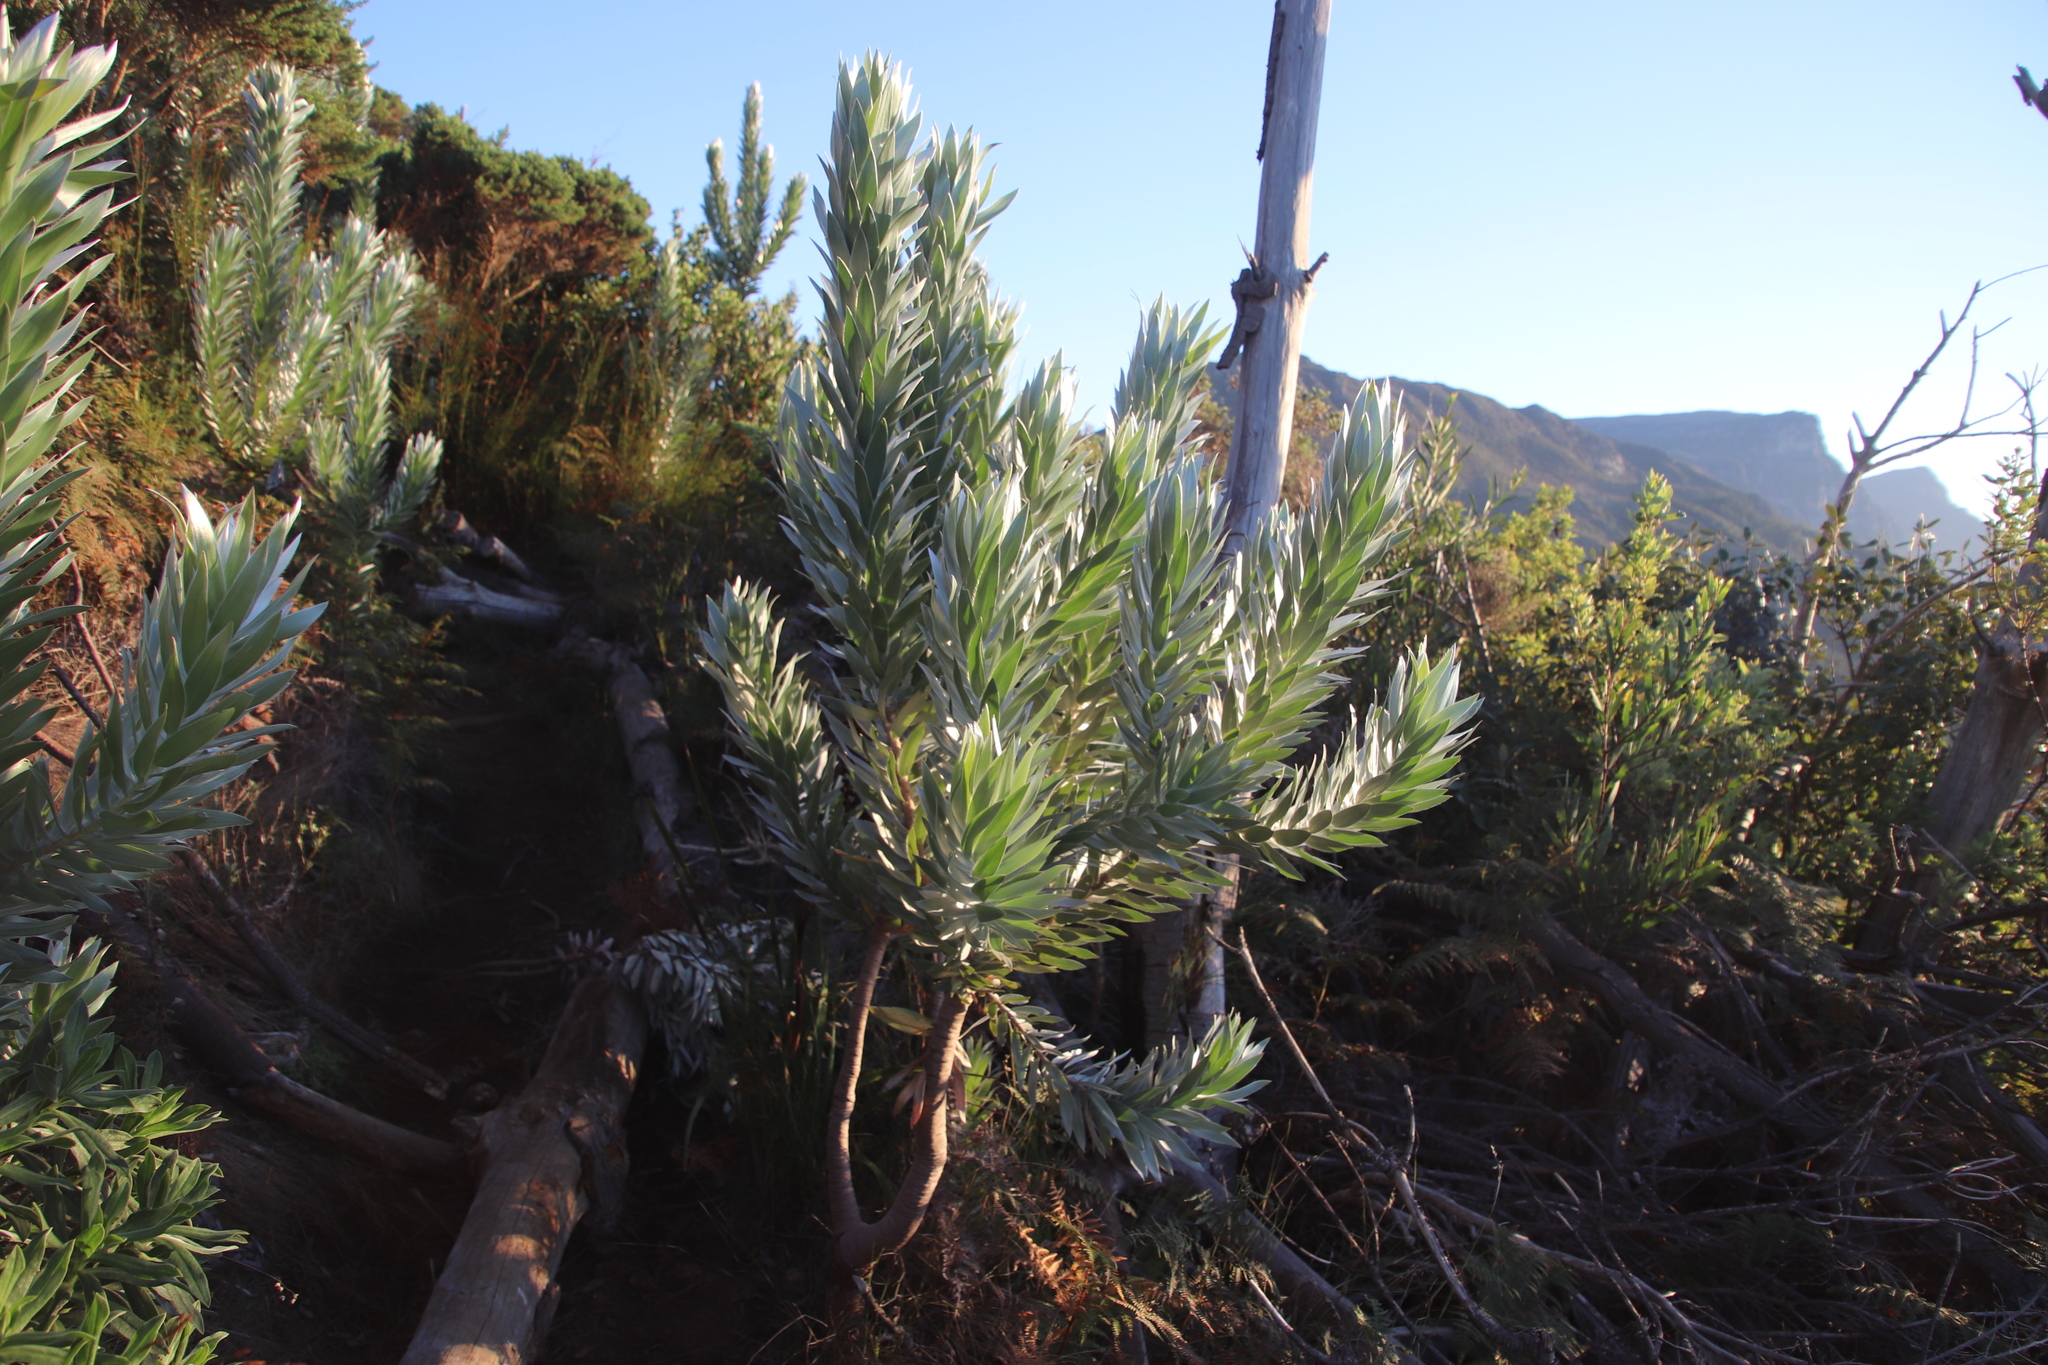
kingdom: Plantae
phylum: Tracheophyta
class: Magnoliopsida
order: Proteales
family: Proteaceae
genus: Leucadendron
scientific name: Leucadendron argenteum
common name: Cape silver tree
